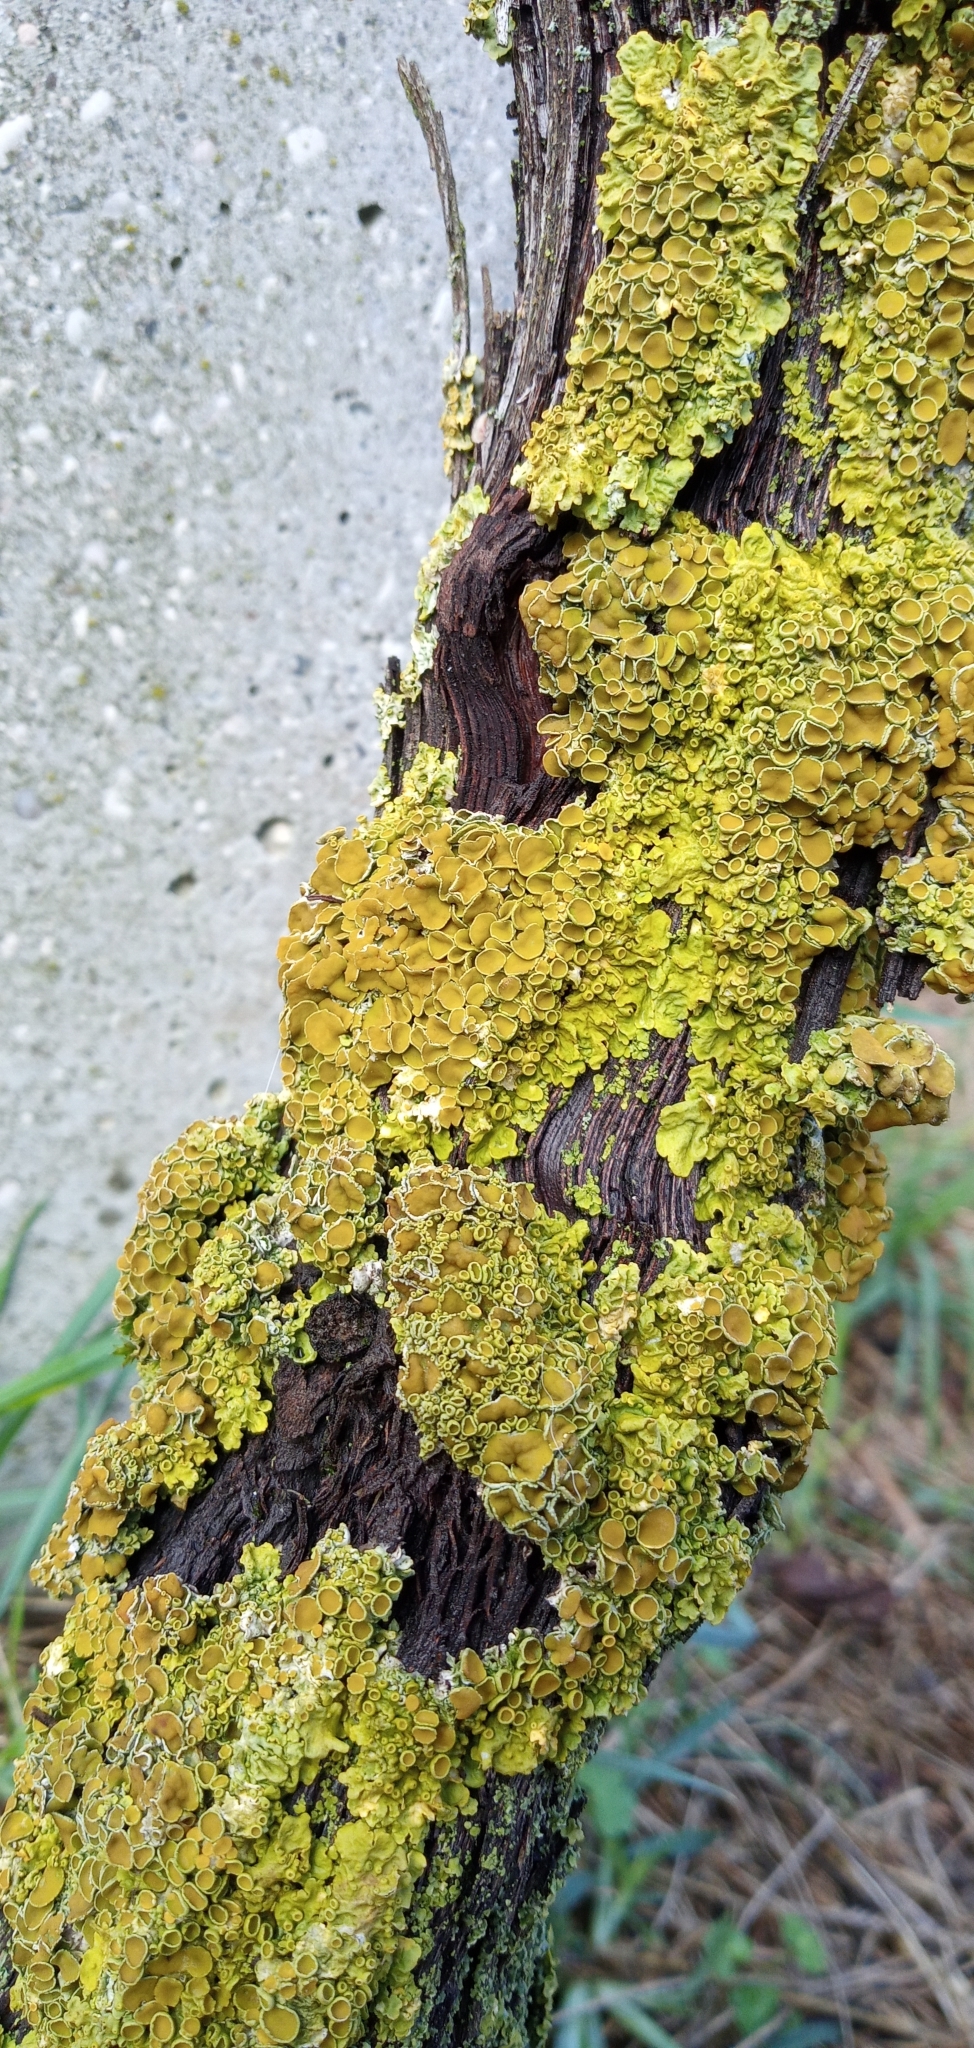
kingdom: Fungi
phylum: Ascomycota
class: Lecanoromycetes
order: Teloschistales
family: Teloschistaceae
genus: Xanthoria
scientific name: Xanthoria parietina
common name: Common orange lichen
